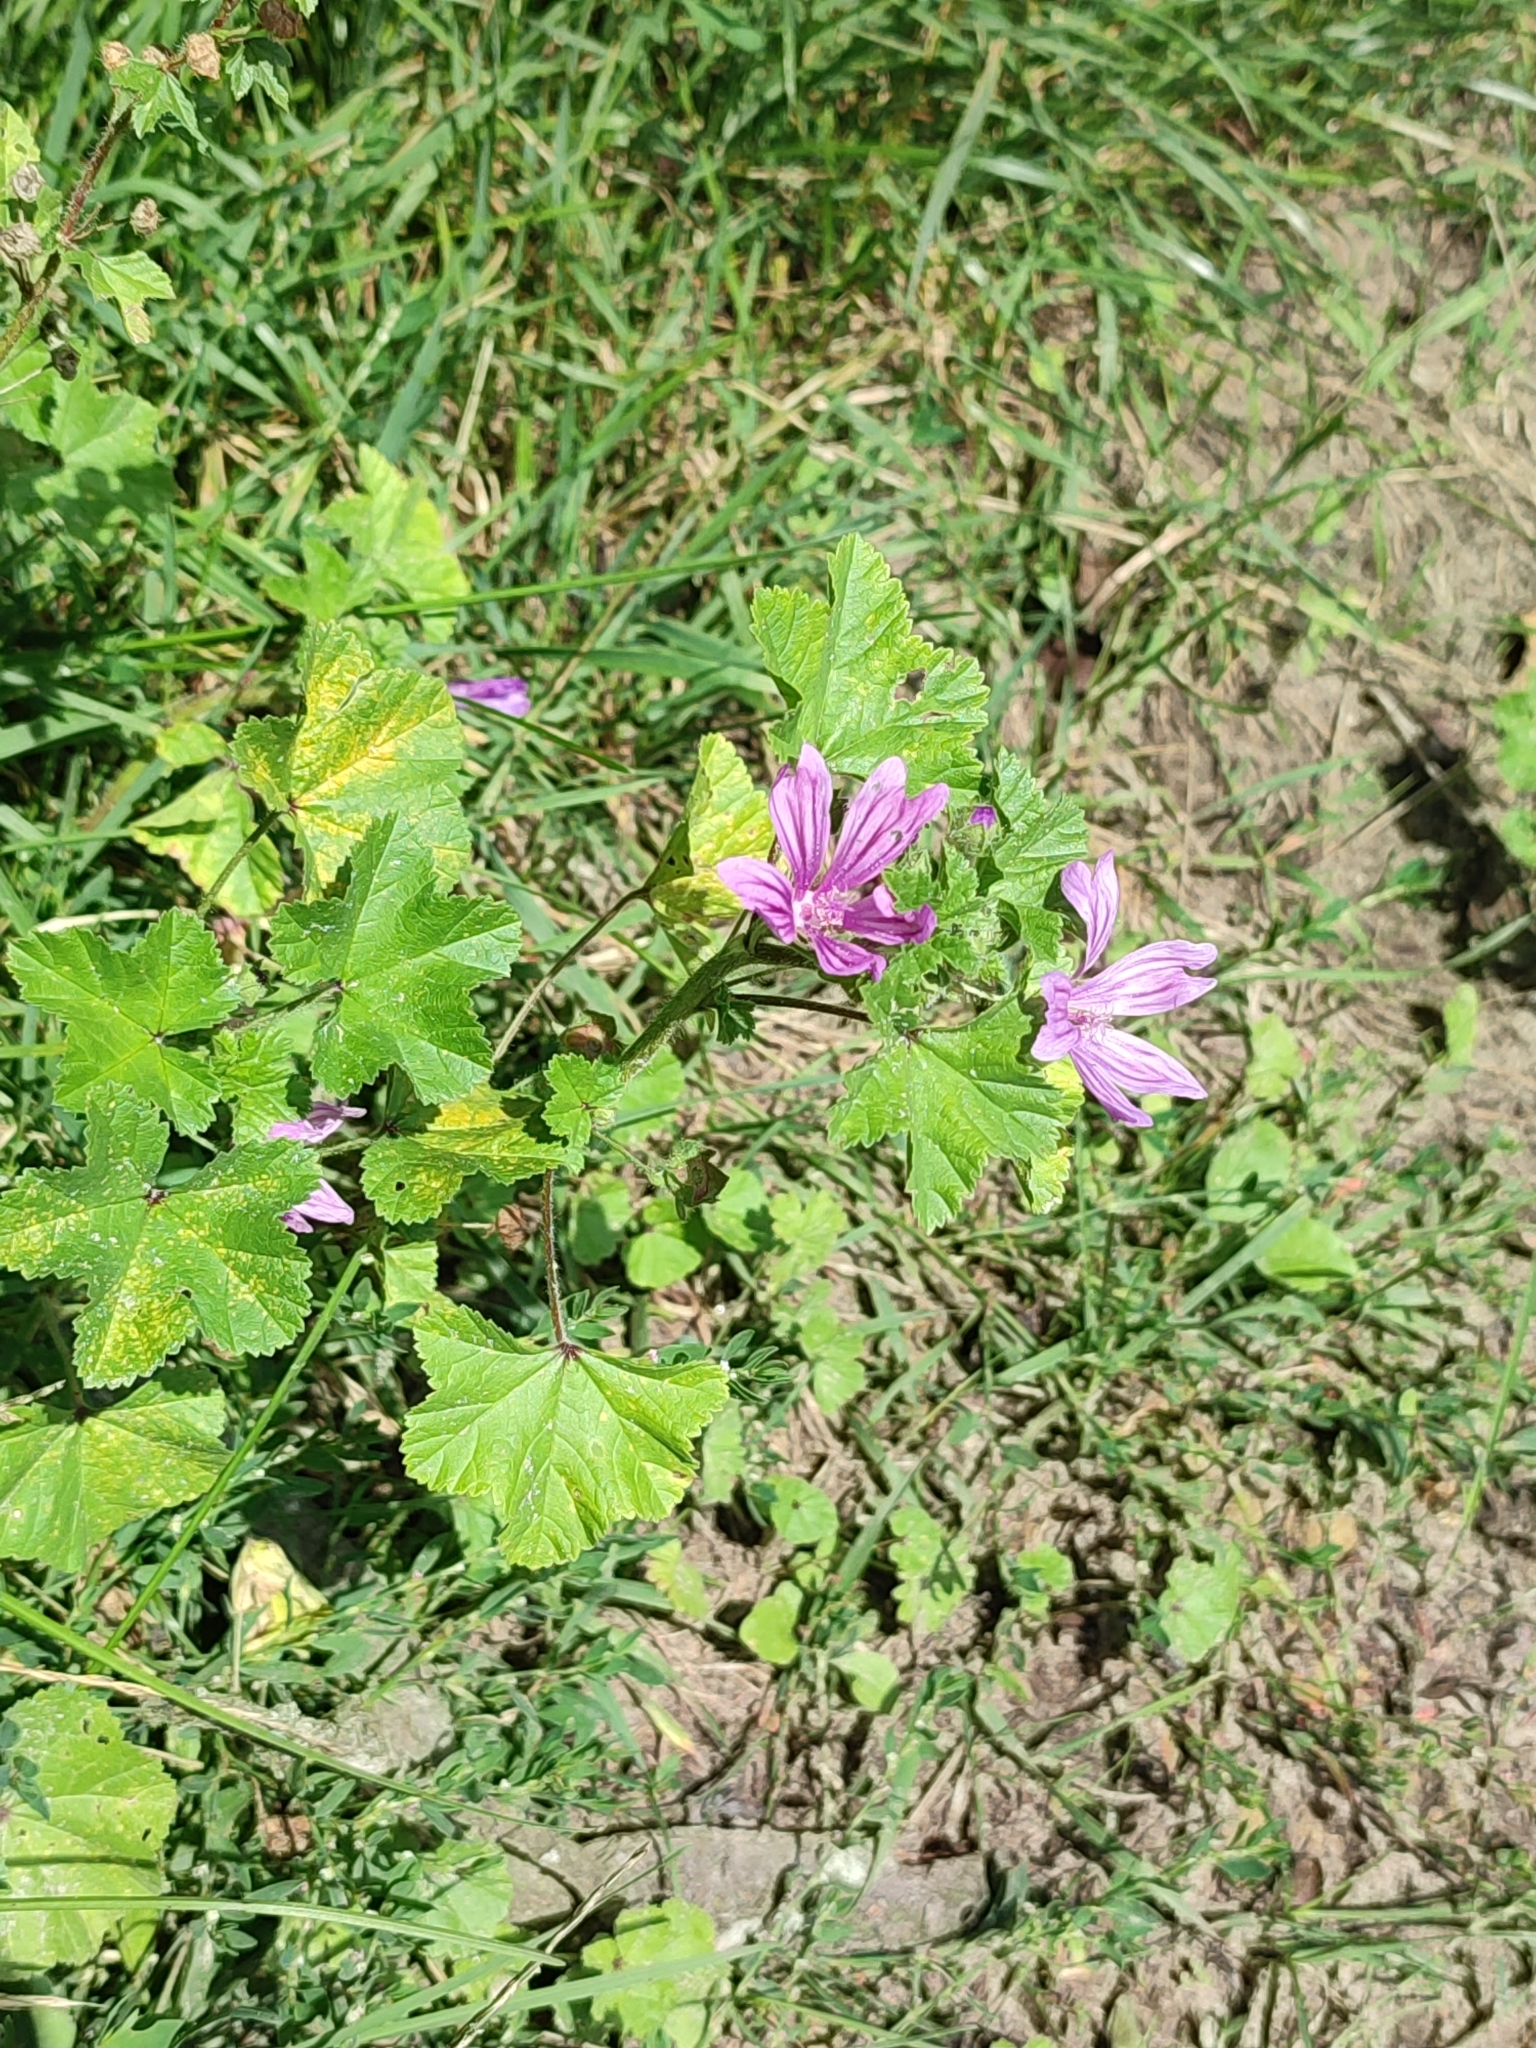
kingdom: Plantae
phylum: Tracheophyta
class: Magnoliopsida
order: Malvales
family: Malvaceae
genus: Malva
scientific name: Malva sylvestris
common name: Common mallow
